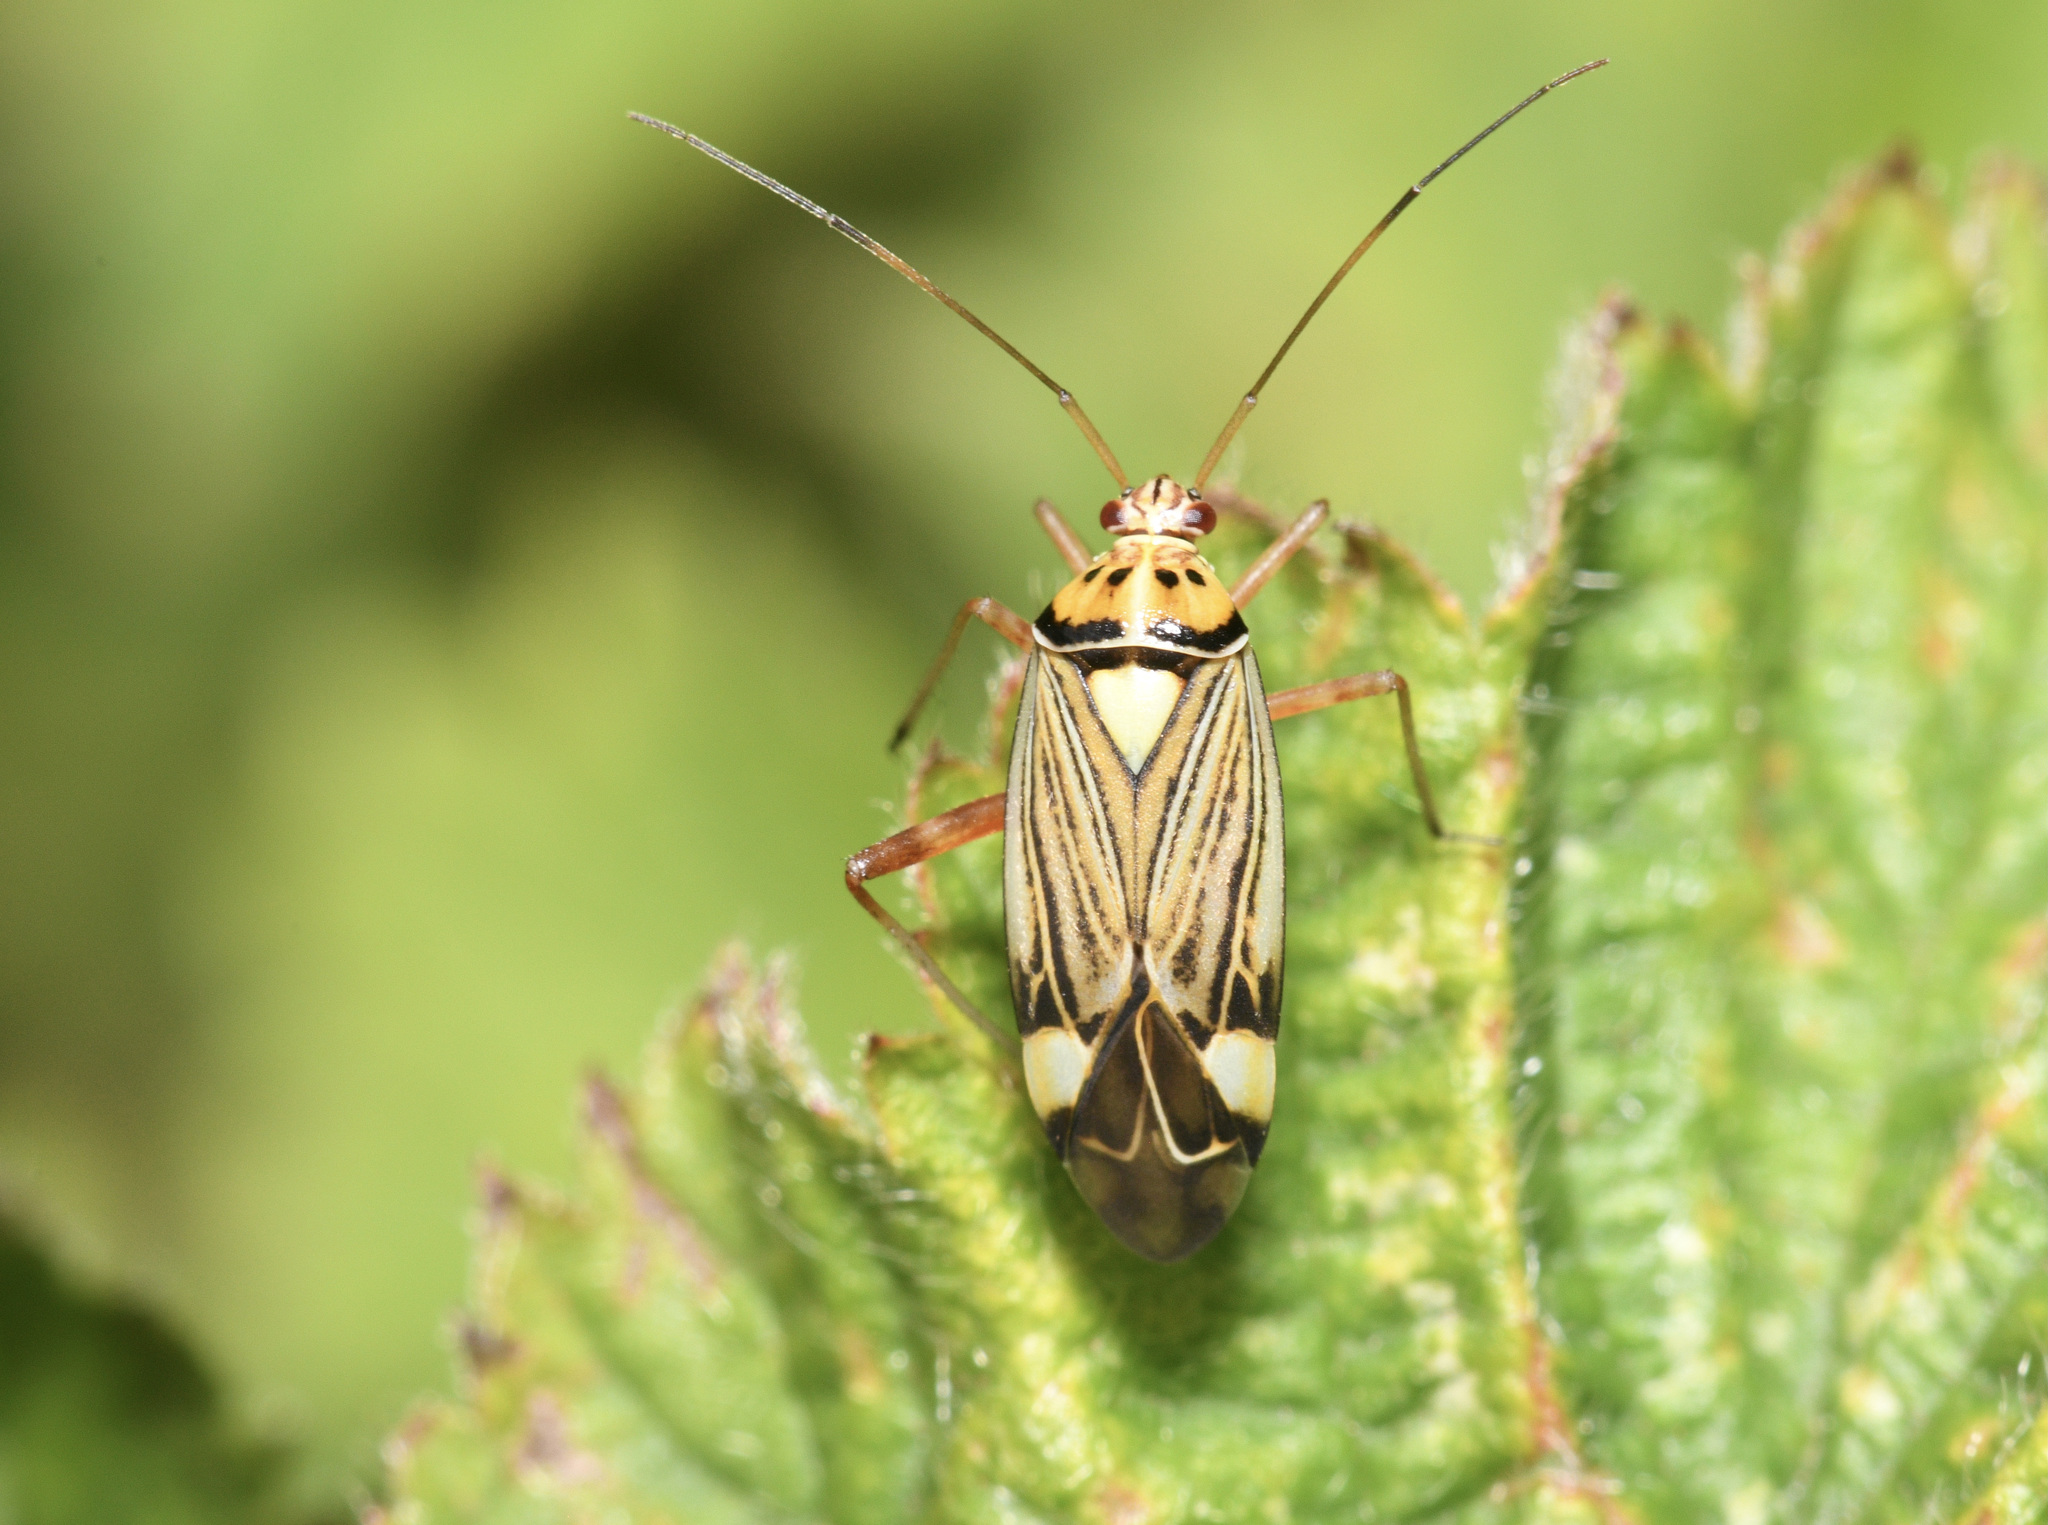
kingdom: Animalia
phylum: Arthropoda
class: Insecta
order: Hemiptera
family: Miridae
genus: Rhabdomiris
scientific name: Rhabdomiris striatellus
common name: Plant bug
